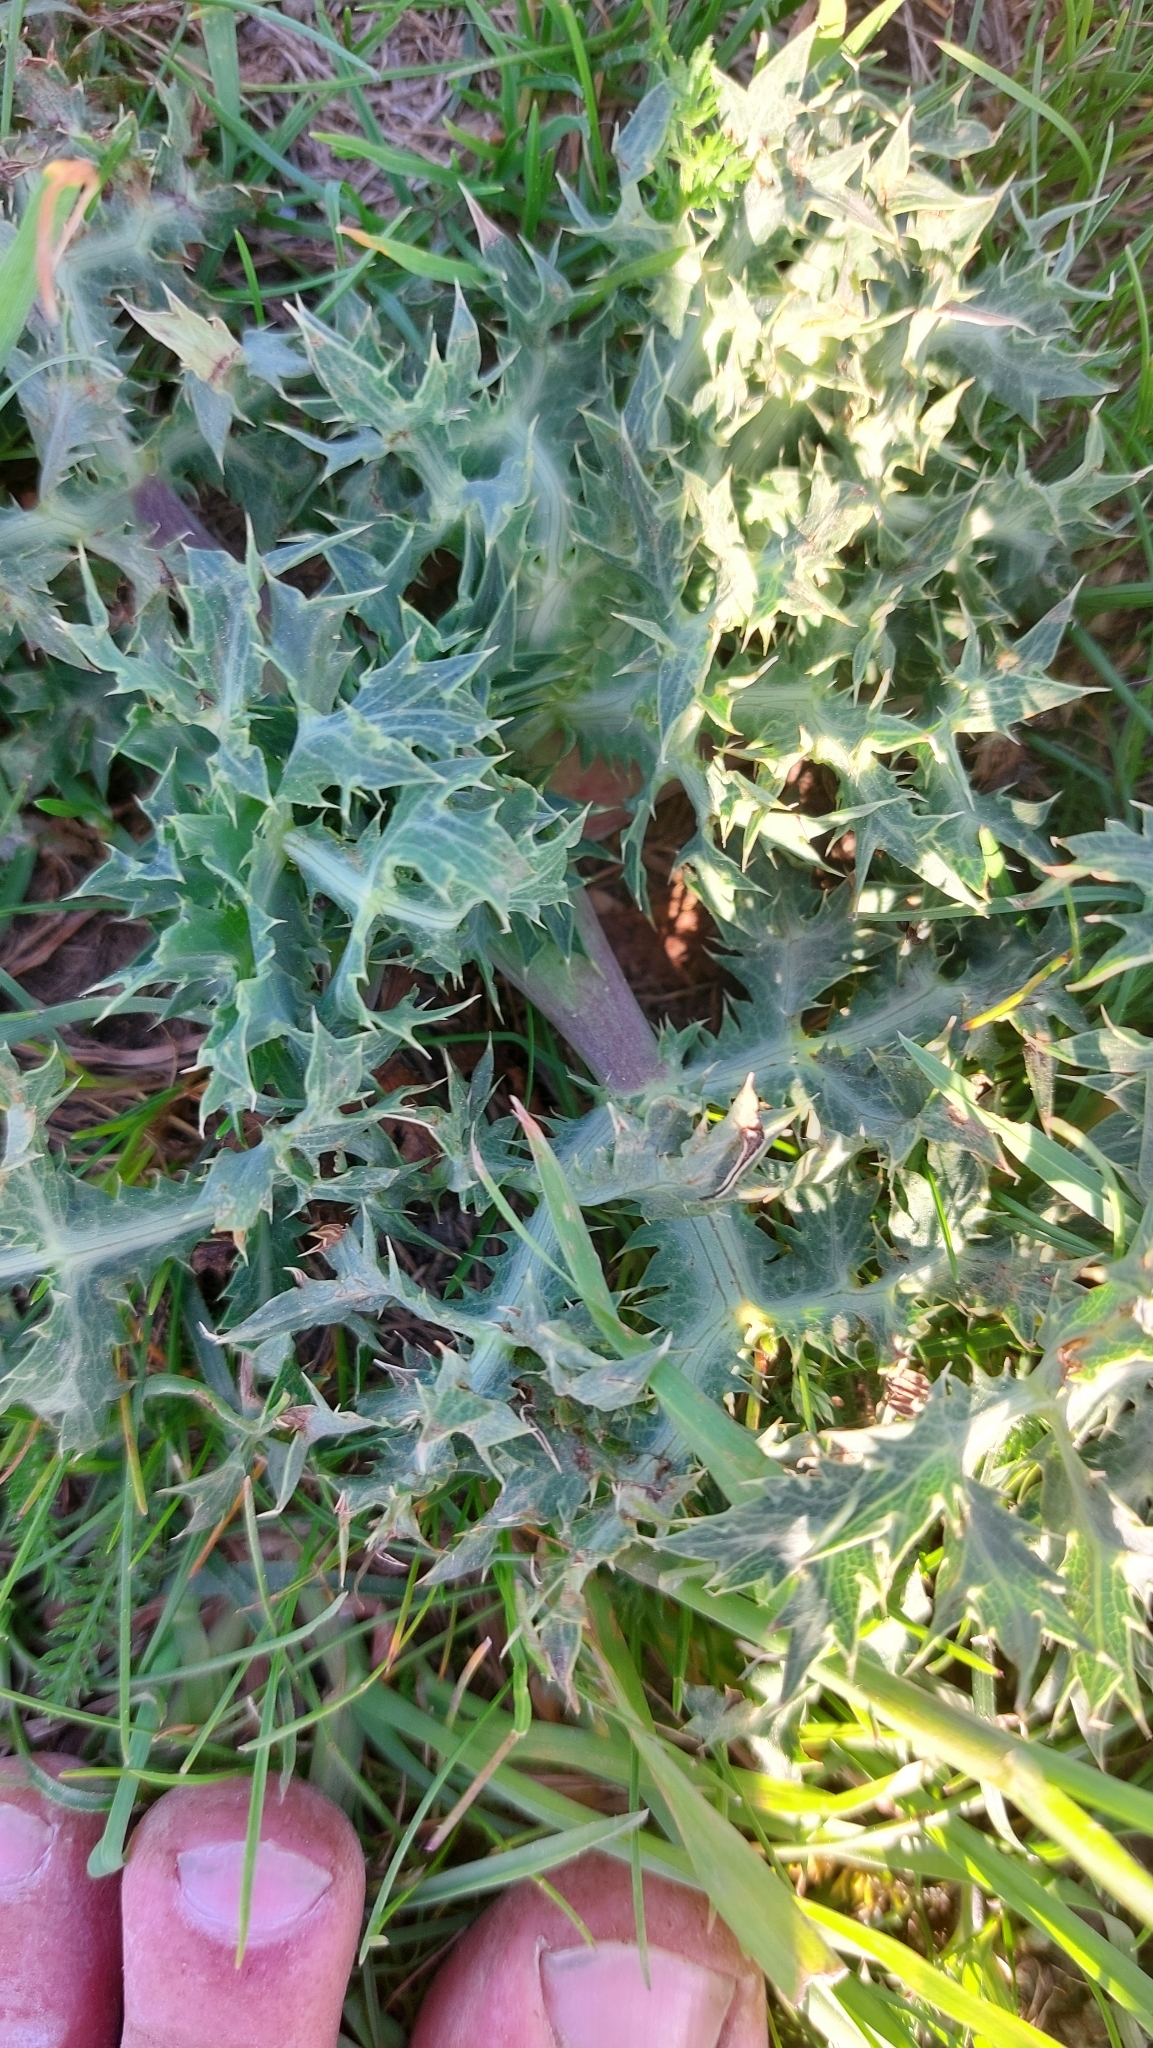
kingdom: Plantae
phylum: Tracheophyta
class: Magnoliopsida
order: Apiales
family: Apiaceae
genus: Eryngium
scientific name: Eryngium campestre
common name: Field eryngo
